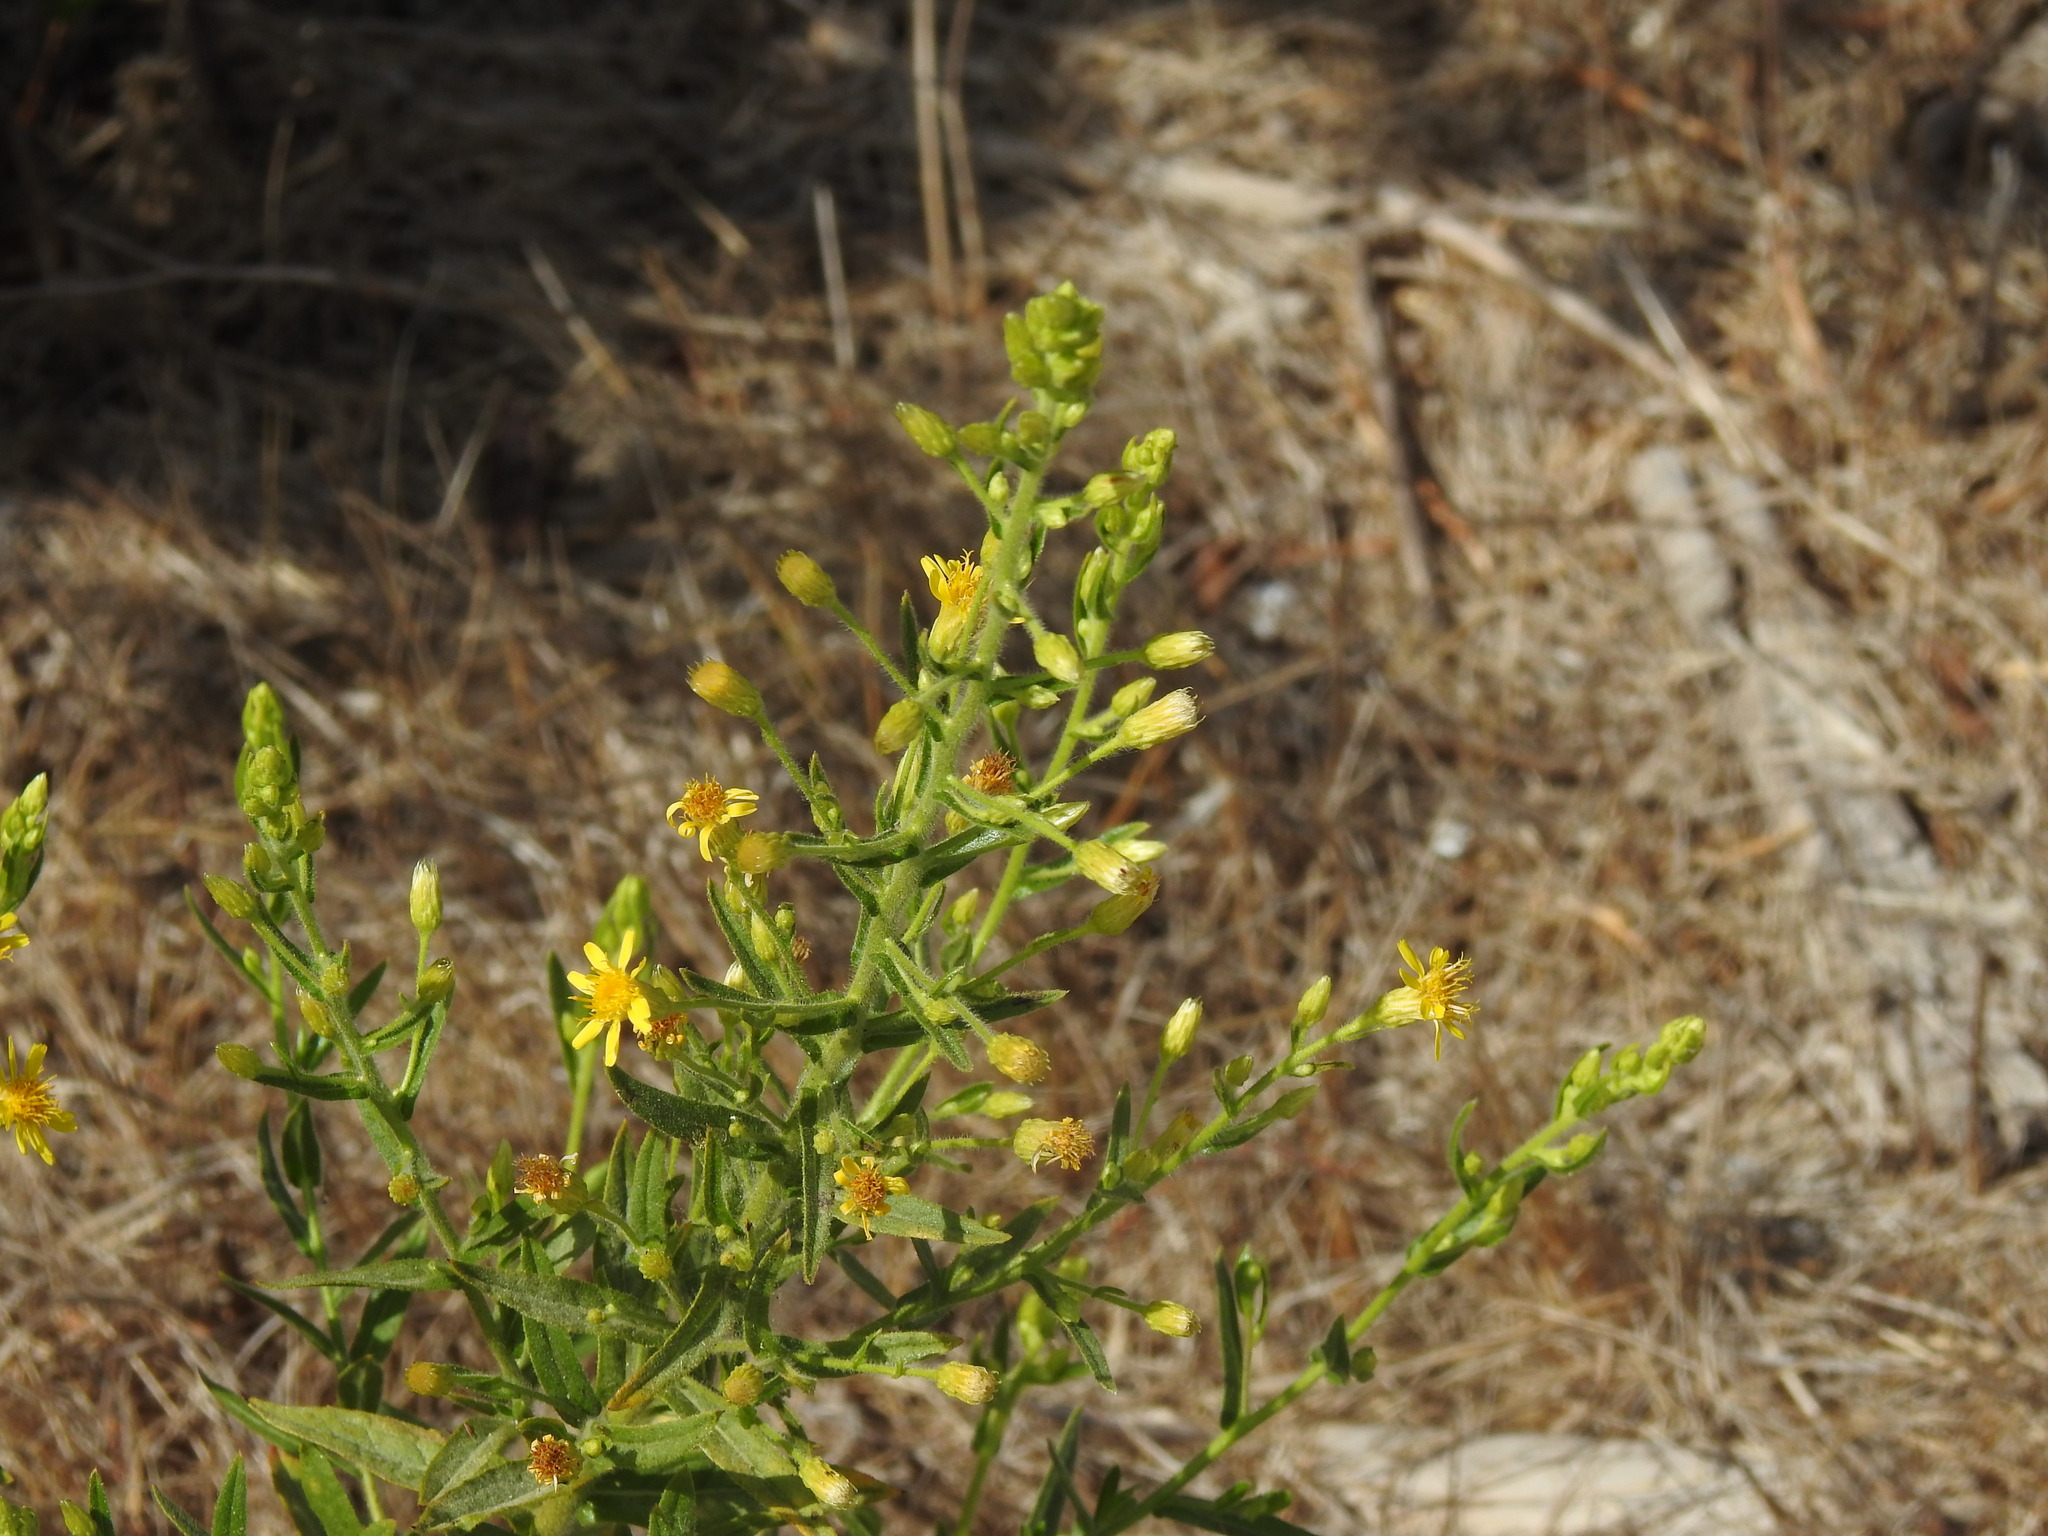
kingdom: Plantae
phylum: Tracheophyta
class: Magnoliopsida
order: Asterales
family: Asteraceae
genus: Dittrichia
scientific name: Dittrichia viscosa
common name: Woody fleabane
